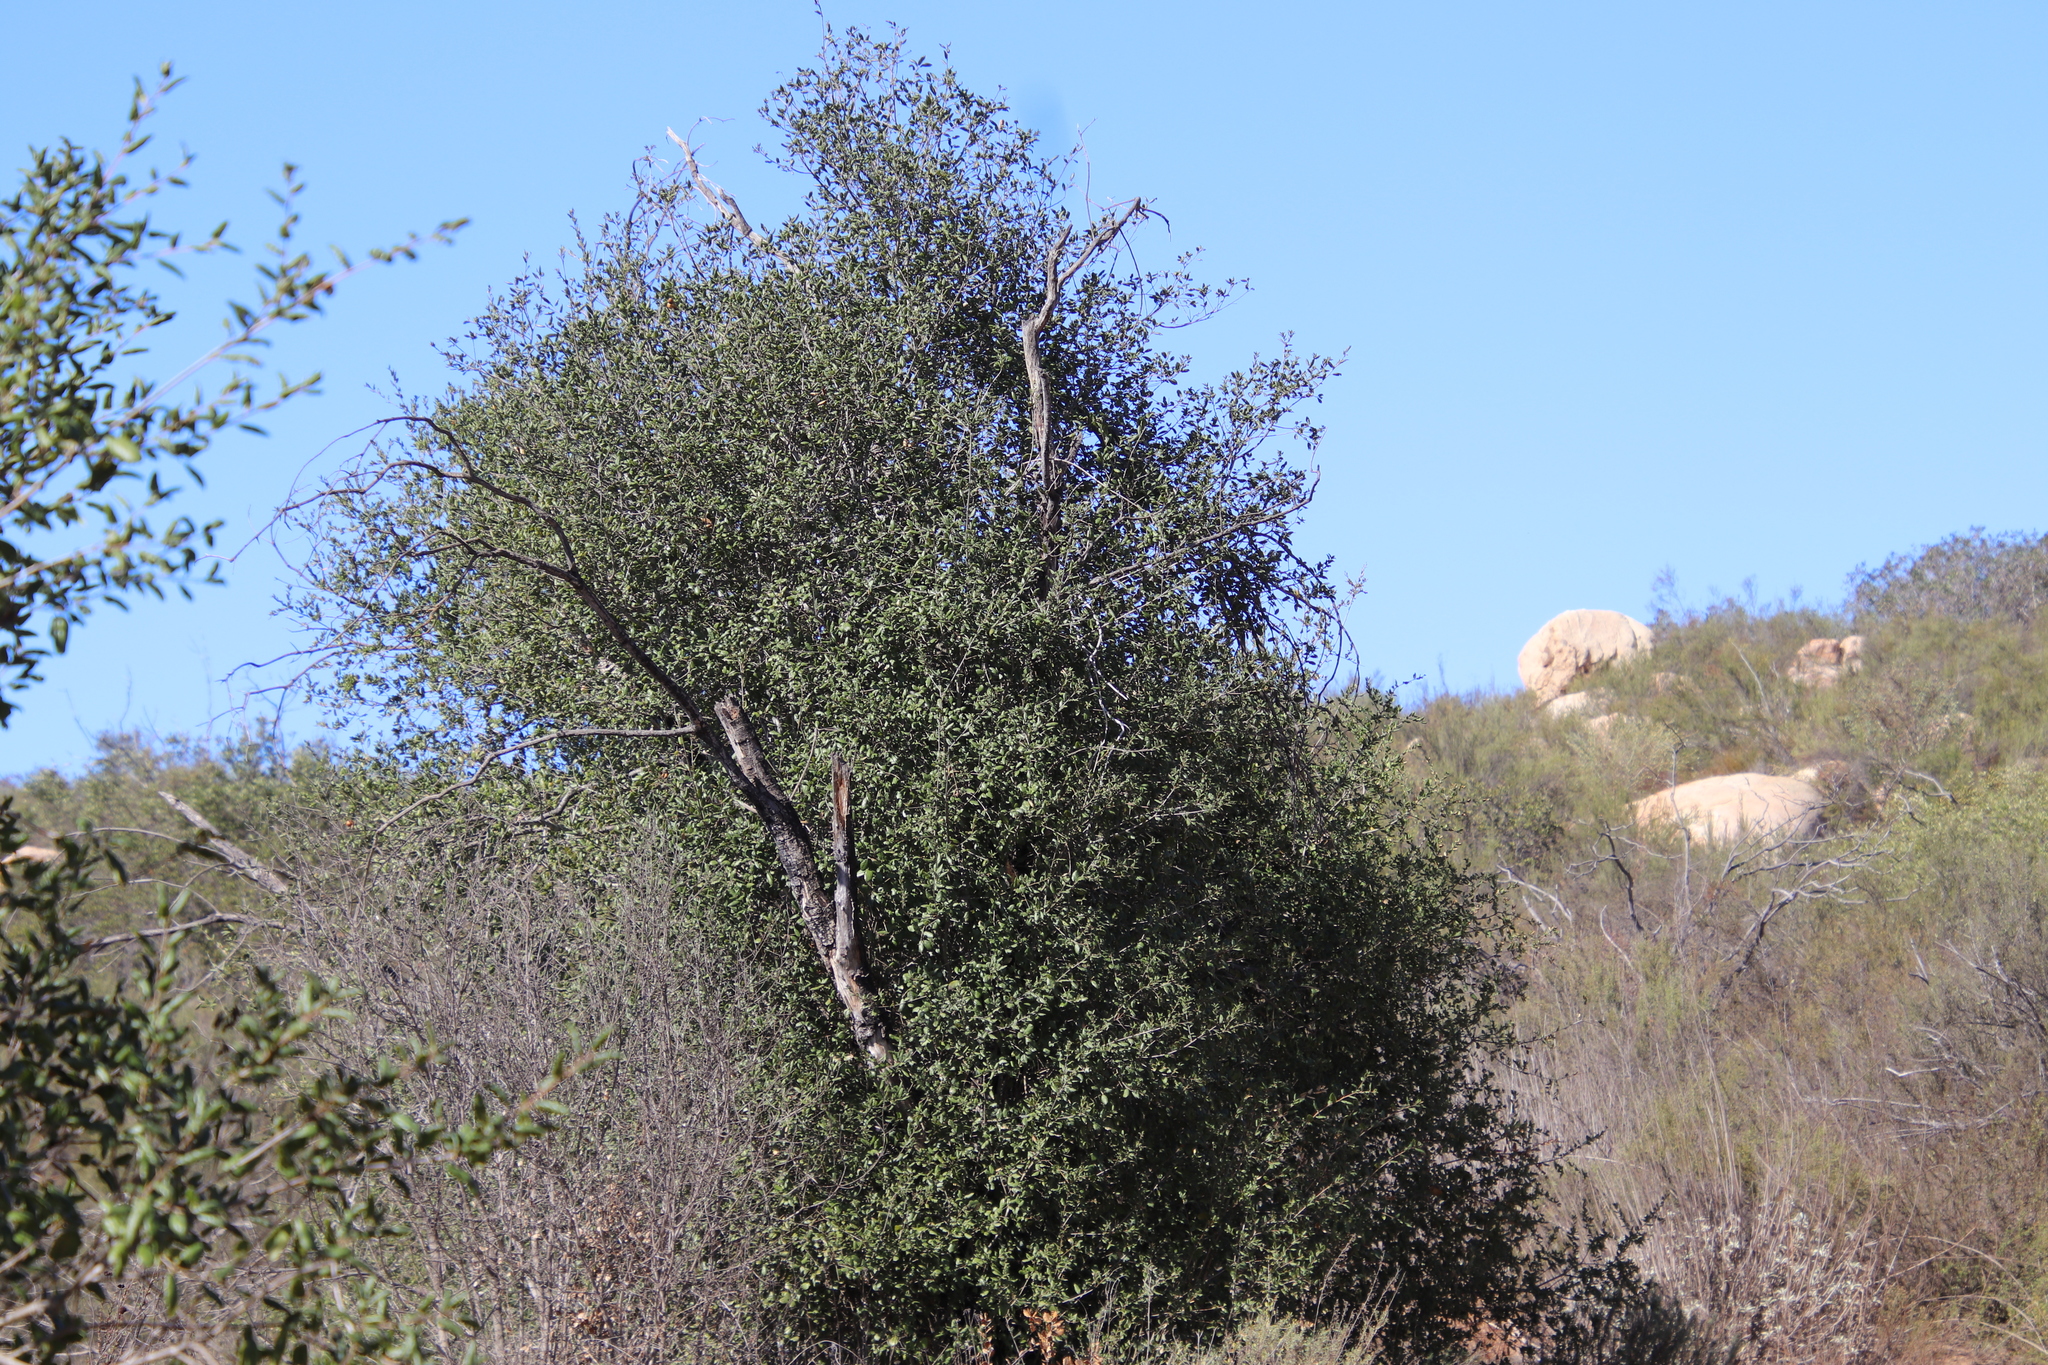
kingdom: Plantae
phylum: Tracheophyta
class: Magnoliopsida
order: Fagales
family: Fagaceae
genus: Quercus
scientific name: Quercus agrifolia
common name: California live oak
